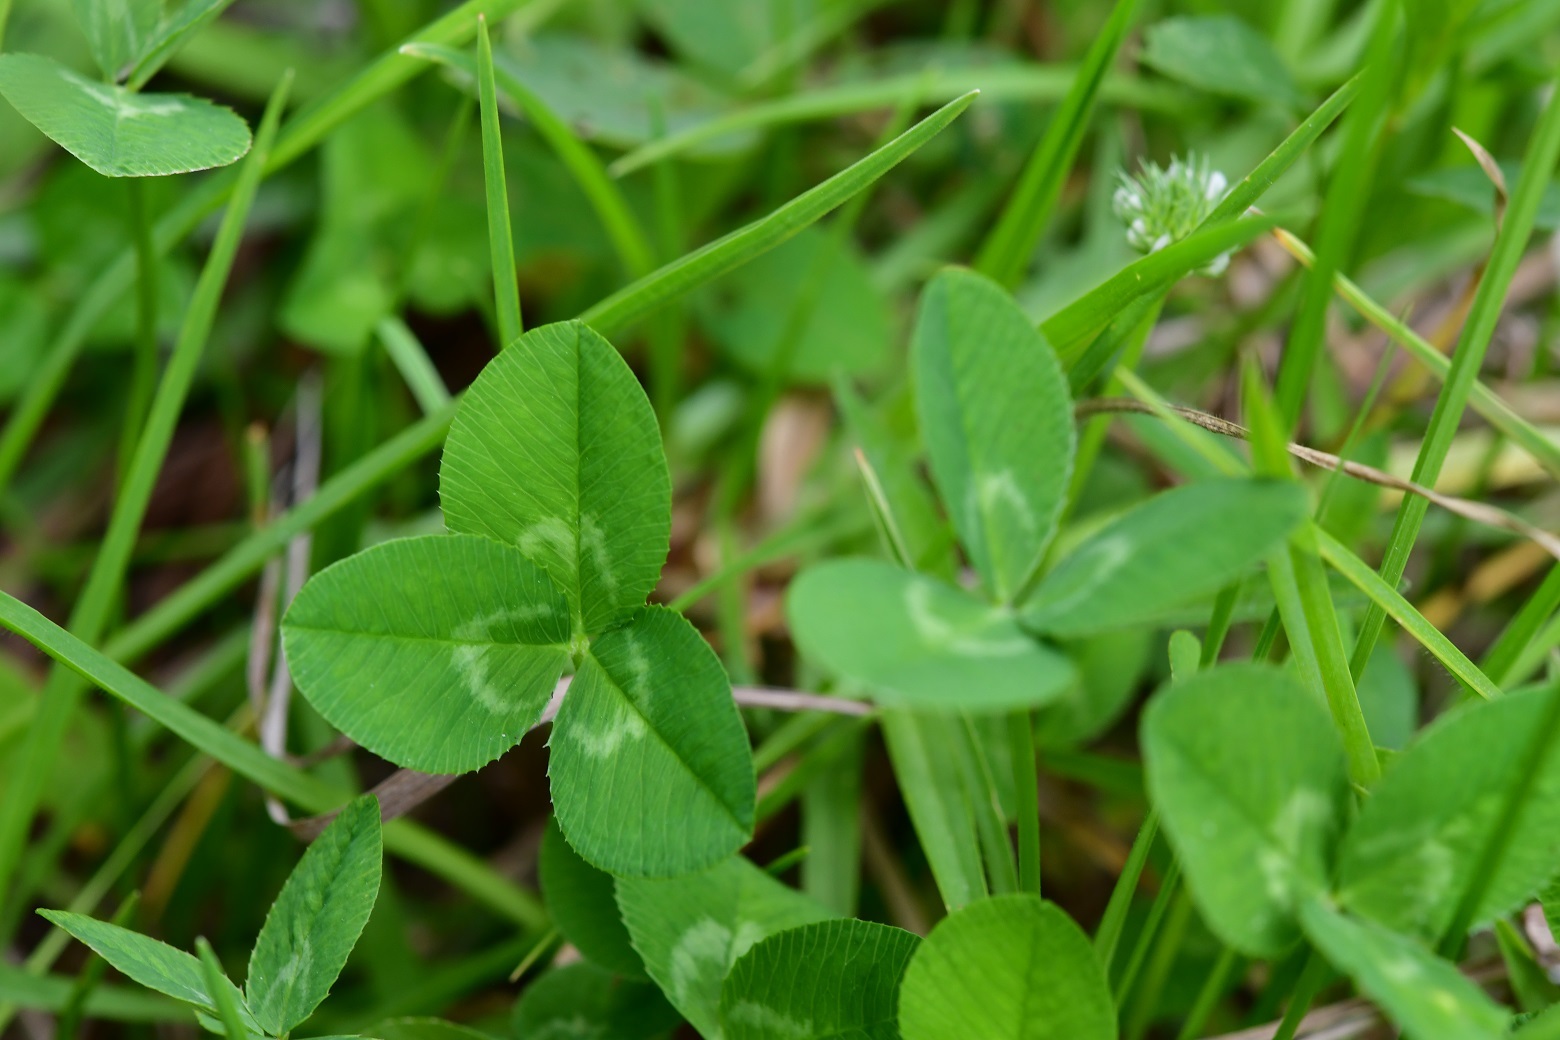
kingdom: Plantae
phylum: Tracheophyta
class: Magnoliopsida
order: Fabales
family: Fabaceae
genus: Trifolium
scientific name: Trifolium repens
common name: White clover
